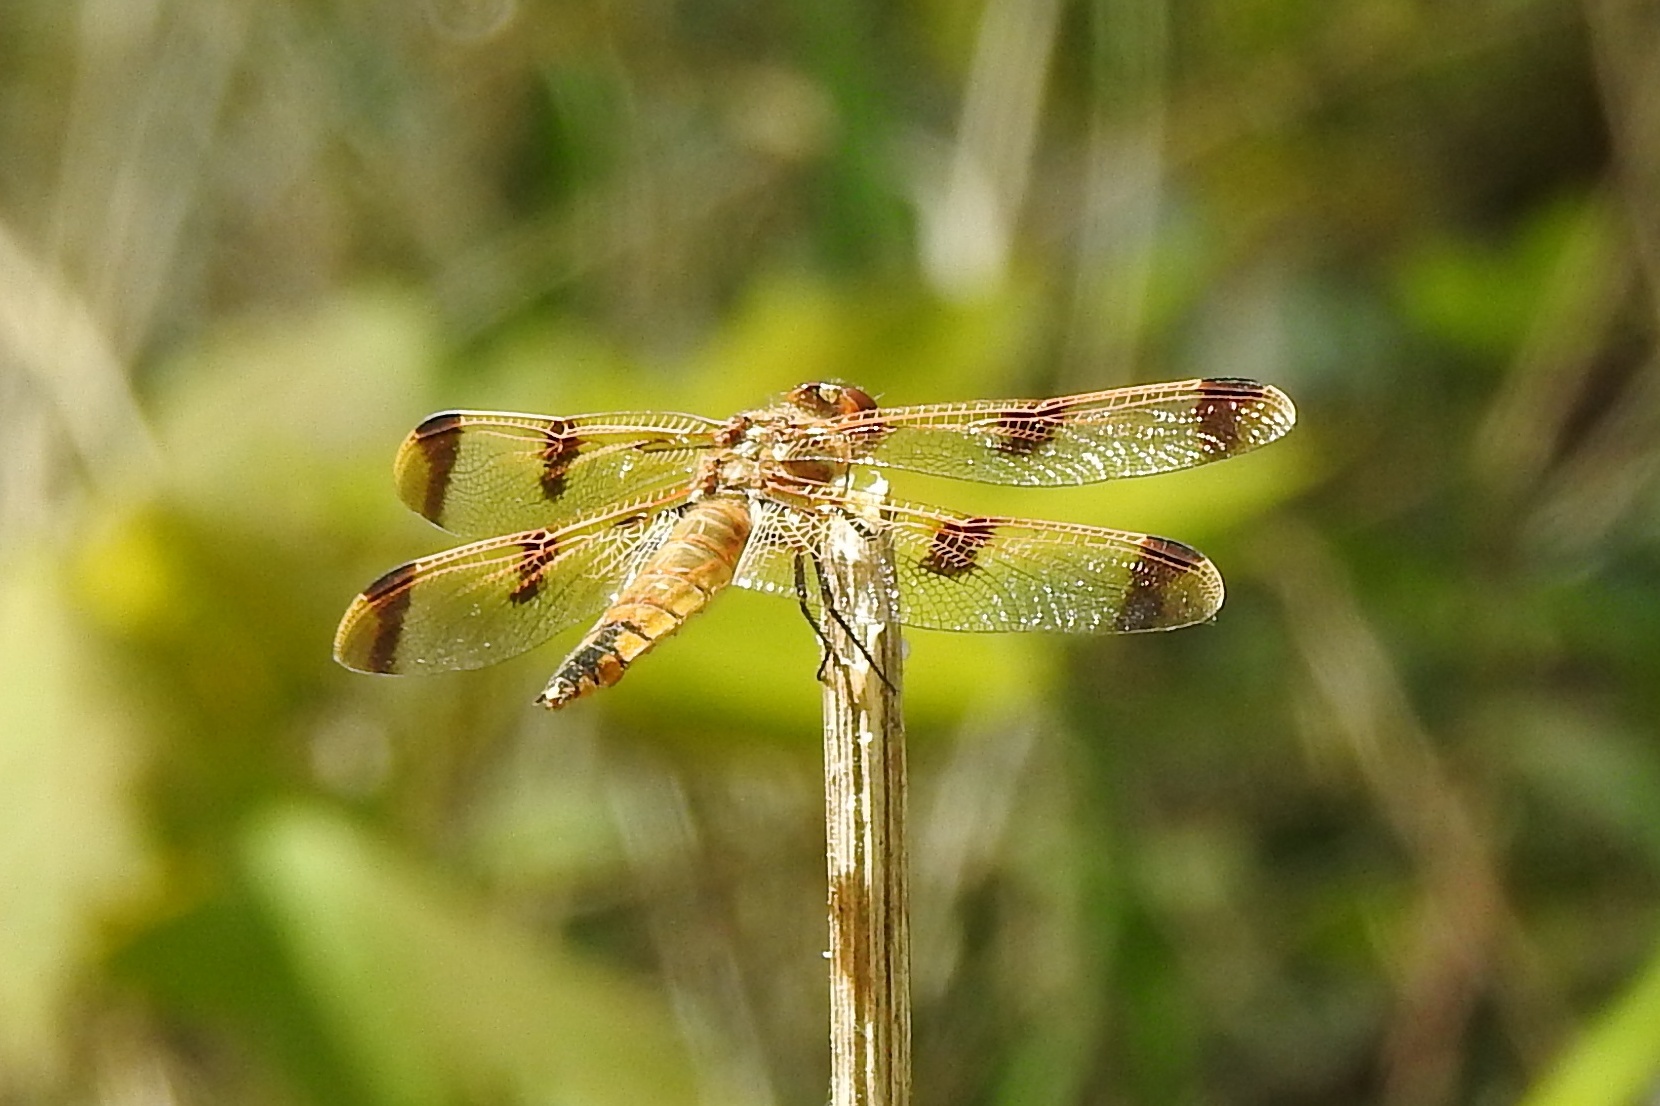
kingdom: Animalia
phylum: Arthropoda
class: Insecta
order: Odonata
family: Libellulidae
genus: Libellula
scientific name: Libellula semifasciata
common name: Painted skimmer
